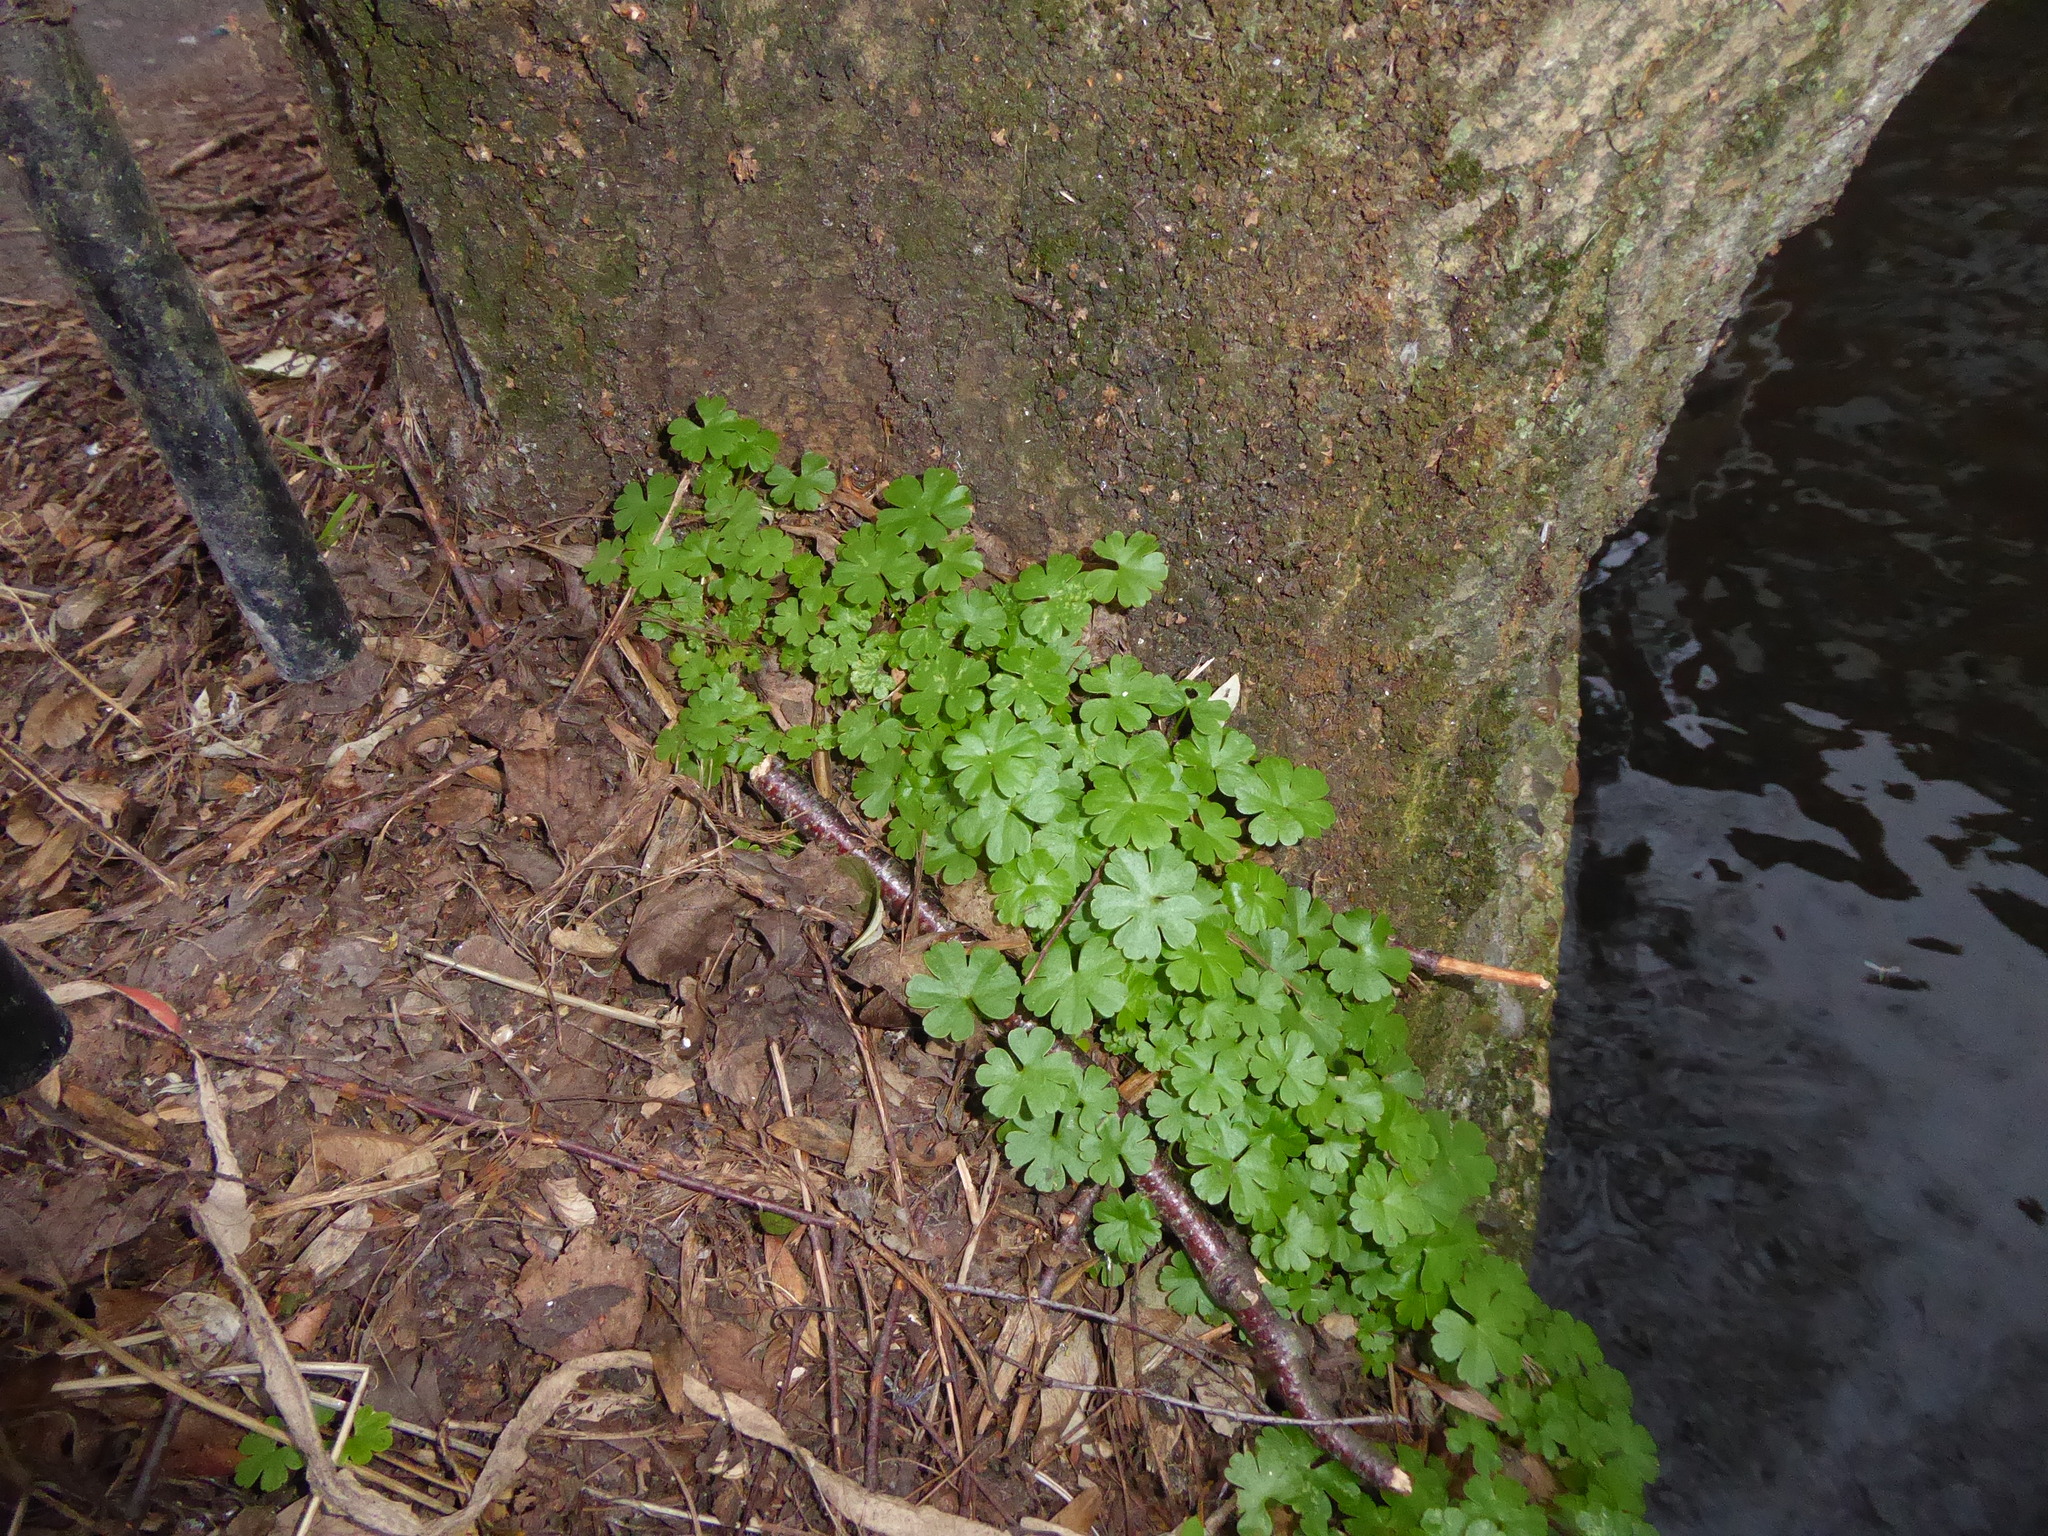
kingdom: Plantae
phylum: Tracheophyta
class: Magnoliopsida
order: Geraniales
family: Geraniaceae
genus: Geranium
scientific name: Geranium lucidum
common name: Shining crane's-bill
